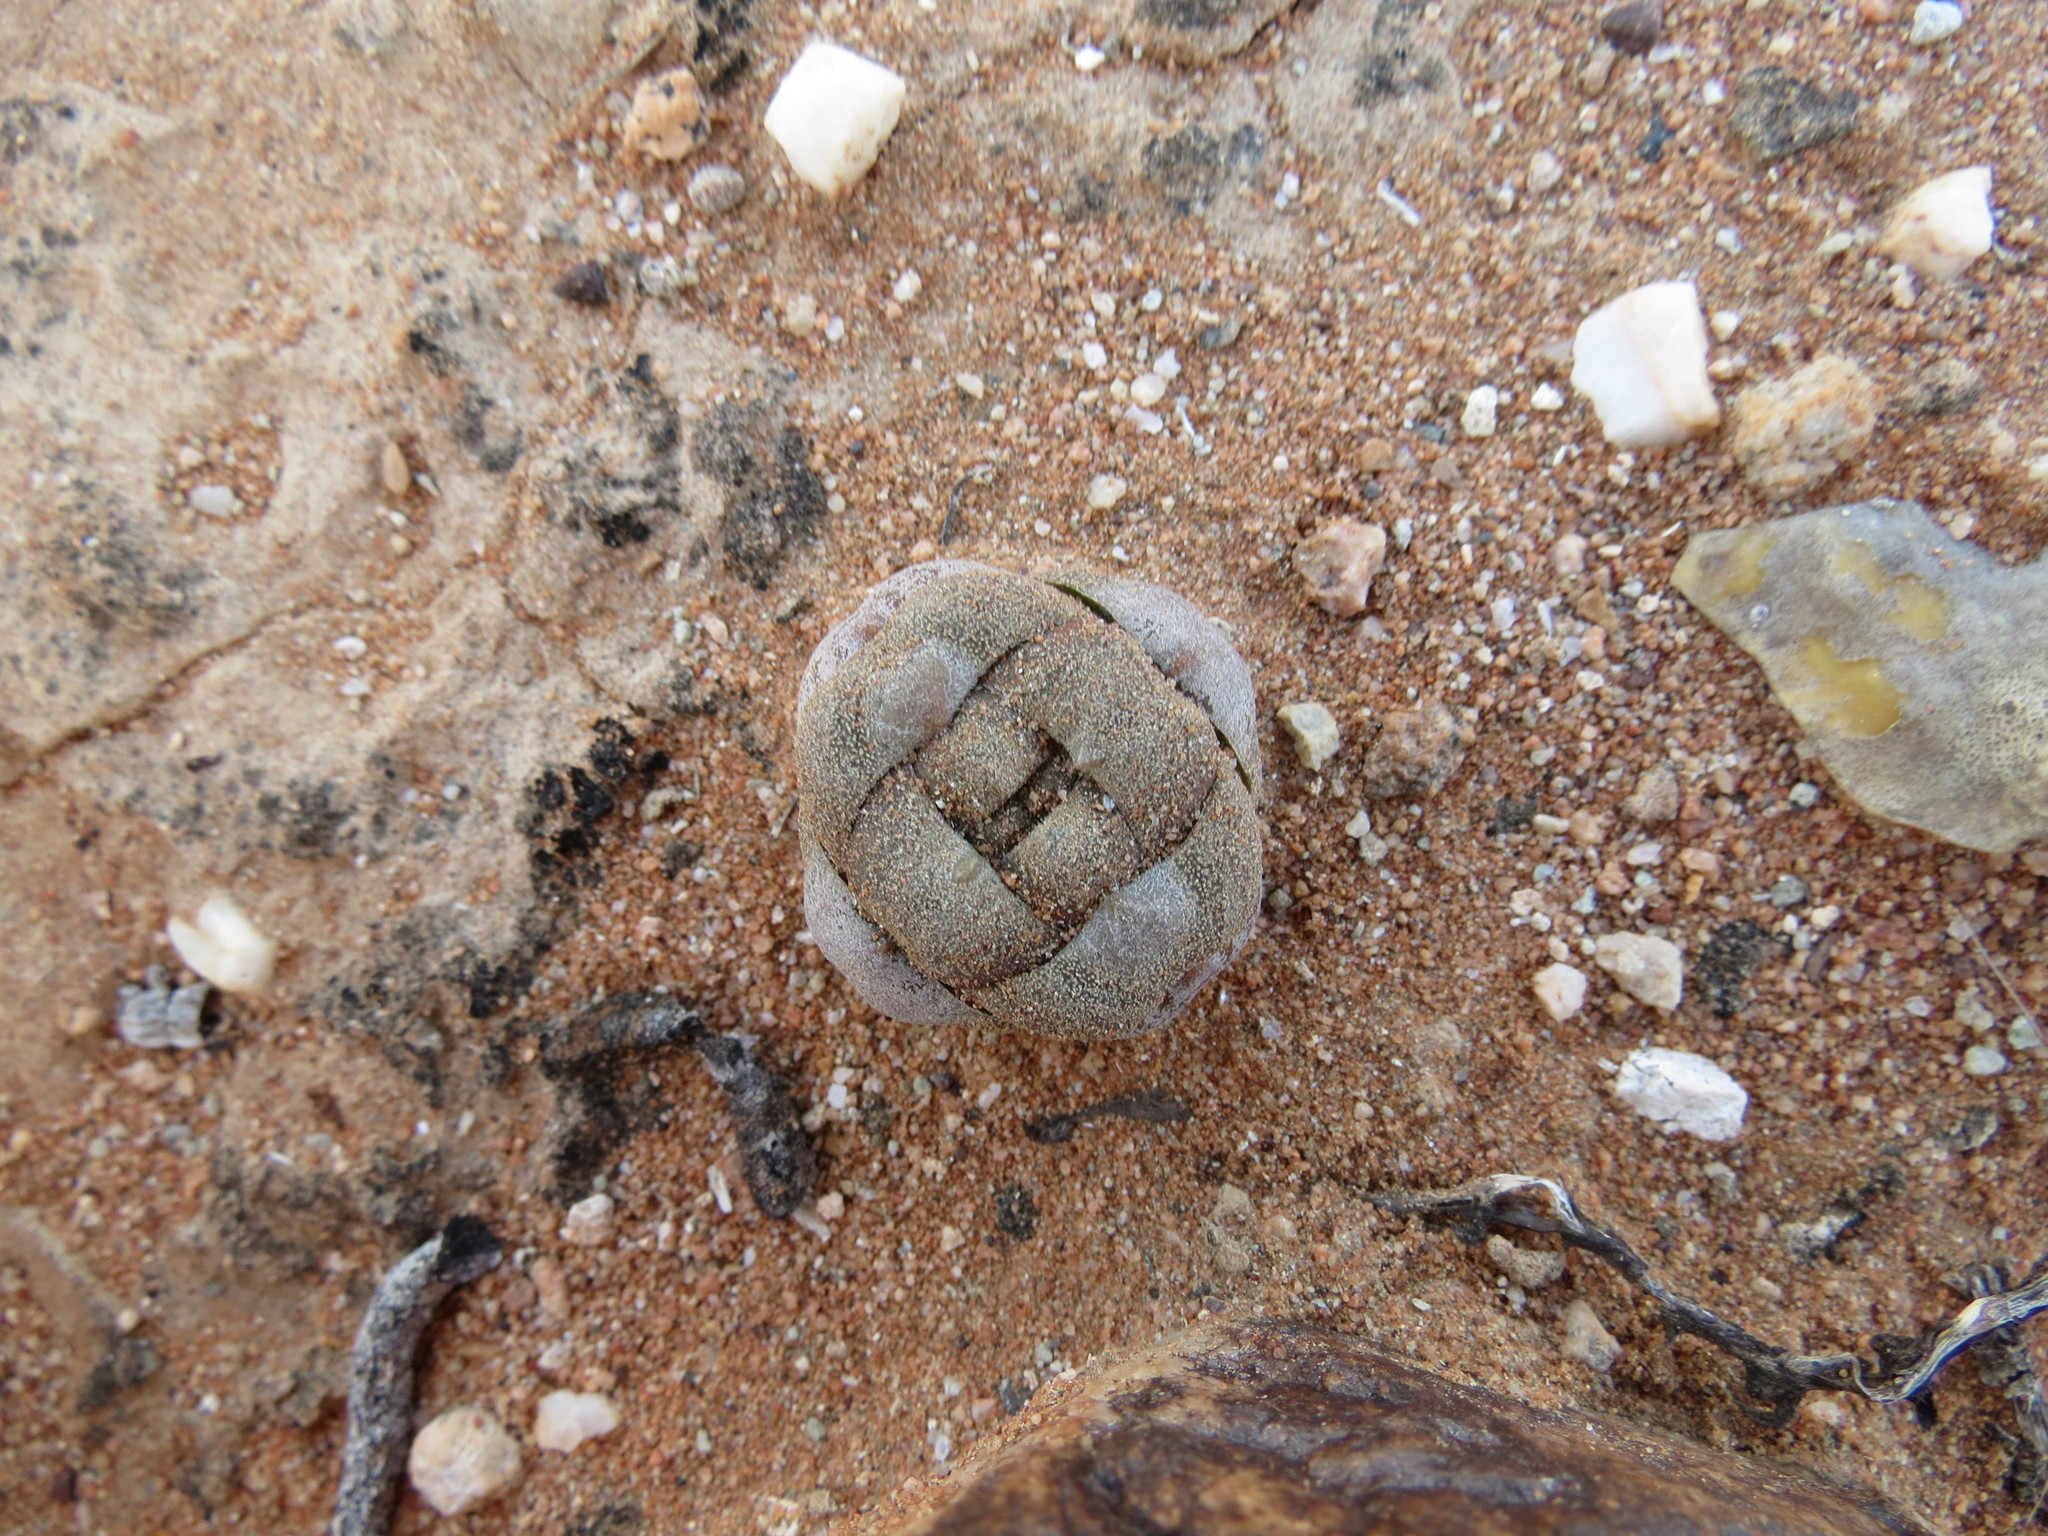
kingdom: Plantae
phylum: Tracheophyta
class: Magnoliopsida
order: Saxifragales
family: Crassulaceae
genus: Crassula
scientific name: Crassula columnaris
